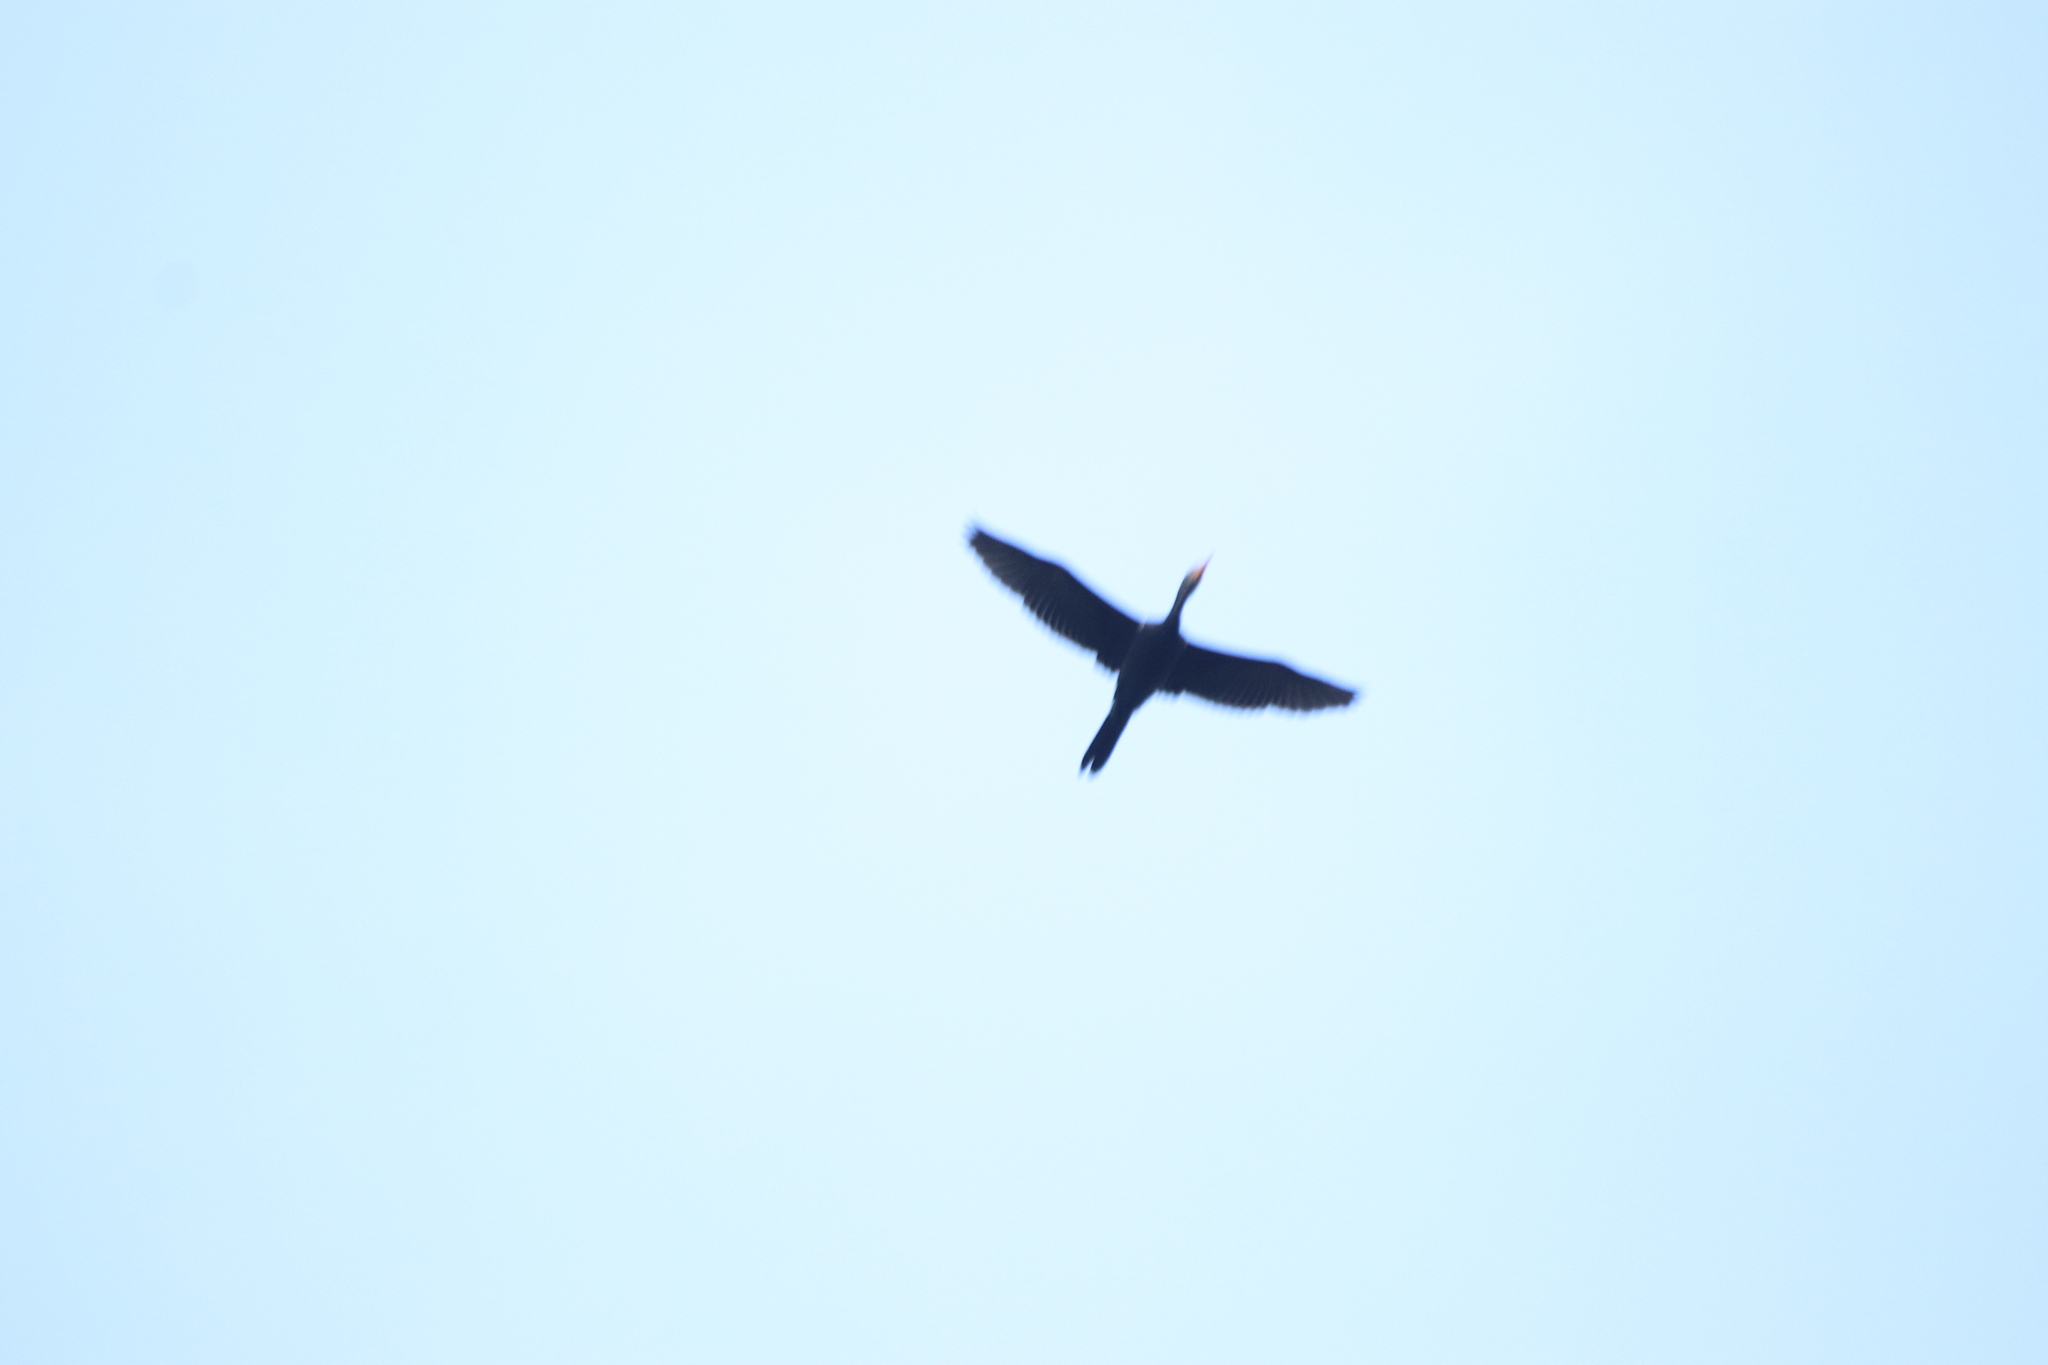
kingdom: Animalia
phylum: Chordata
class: Aves
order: Suliformes
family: Phalacrocoracidae
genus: Microcarbo
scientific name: Microcarbo africanus
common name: Long-tailed cormorant
